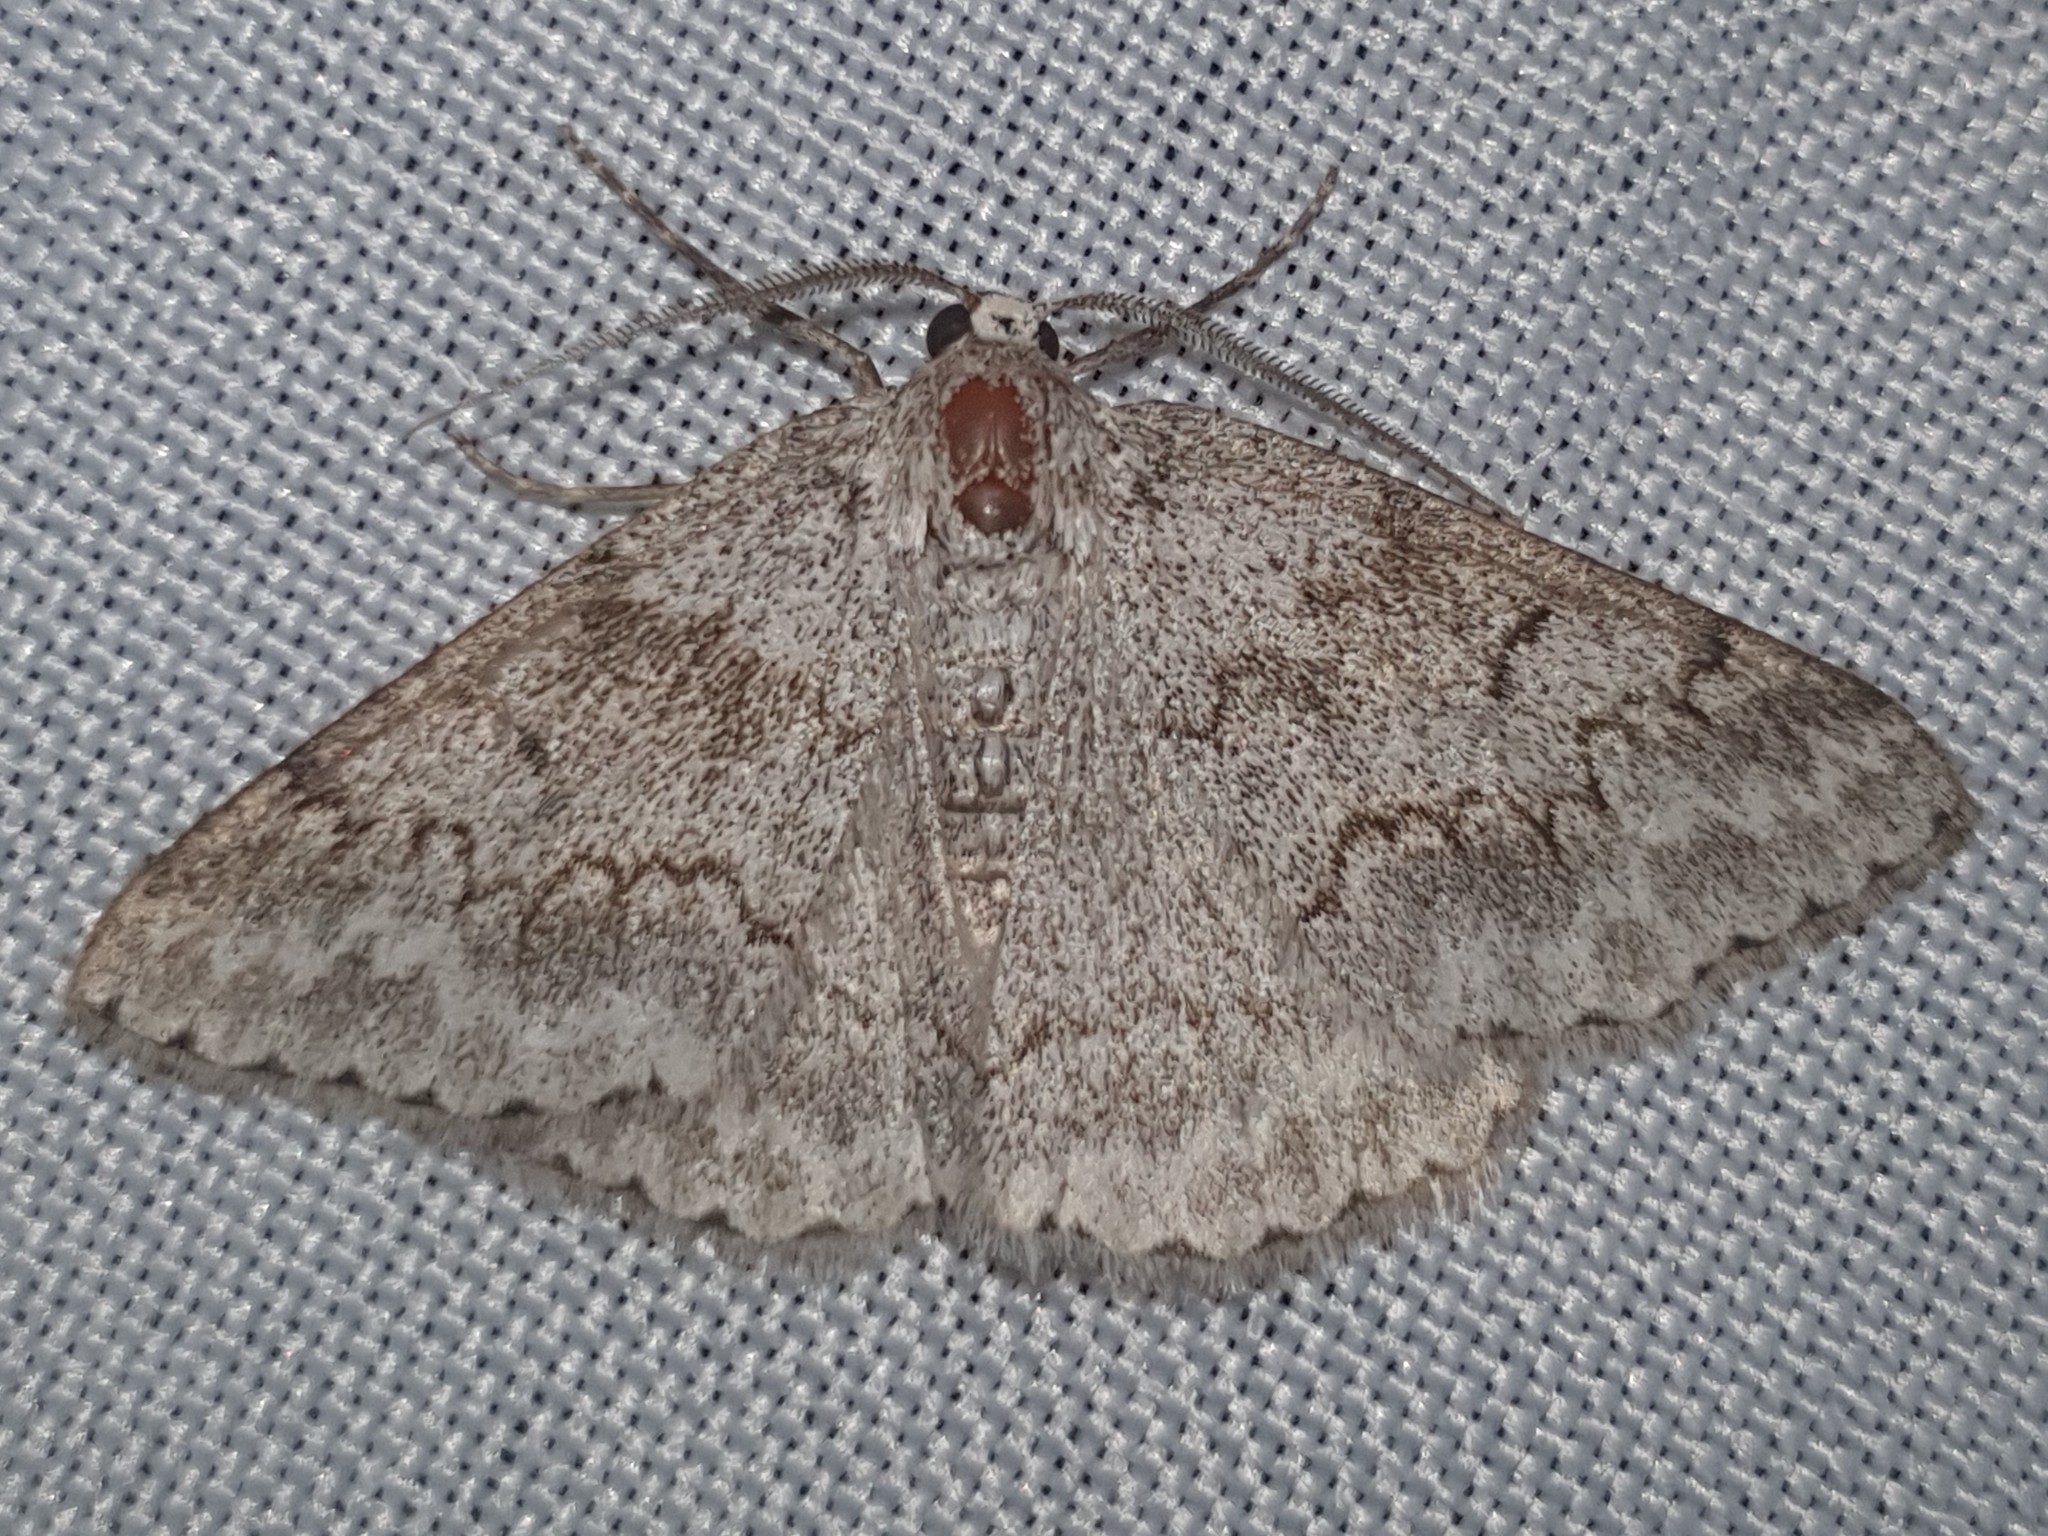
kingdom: Animalia
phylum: Arthropoda
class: Insecta
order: Lepidoptera
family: Geometridae
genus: Pseudoterpna
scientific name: Pseudoterpna coronillaria
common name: Jersey emerald
